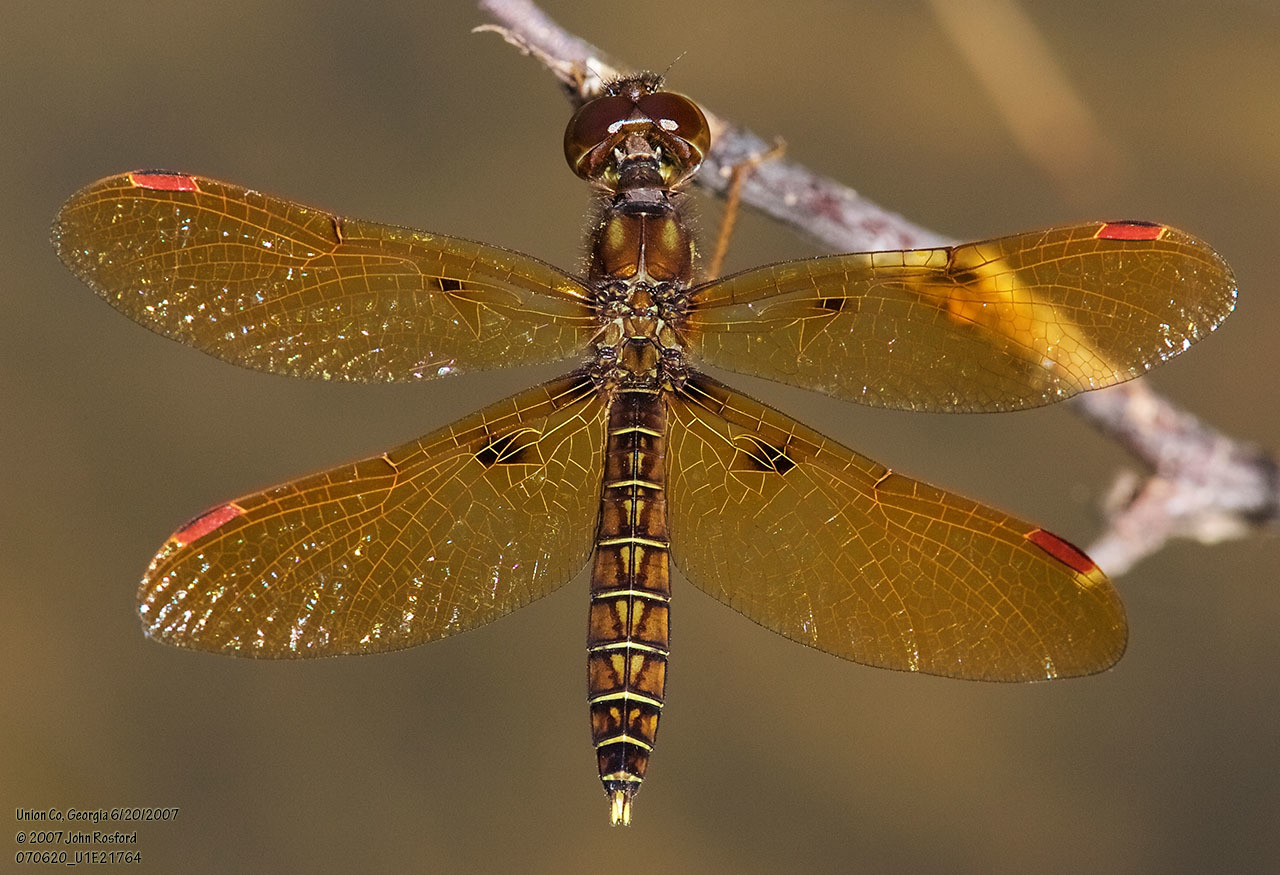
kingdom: Animalia
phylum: Arthropoda
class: Insecta
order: Odonata
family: Libellulidae
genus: Perithemis
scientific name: Perithemis tenera
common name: Eastern amberwing
